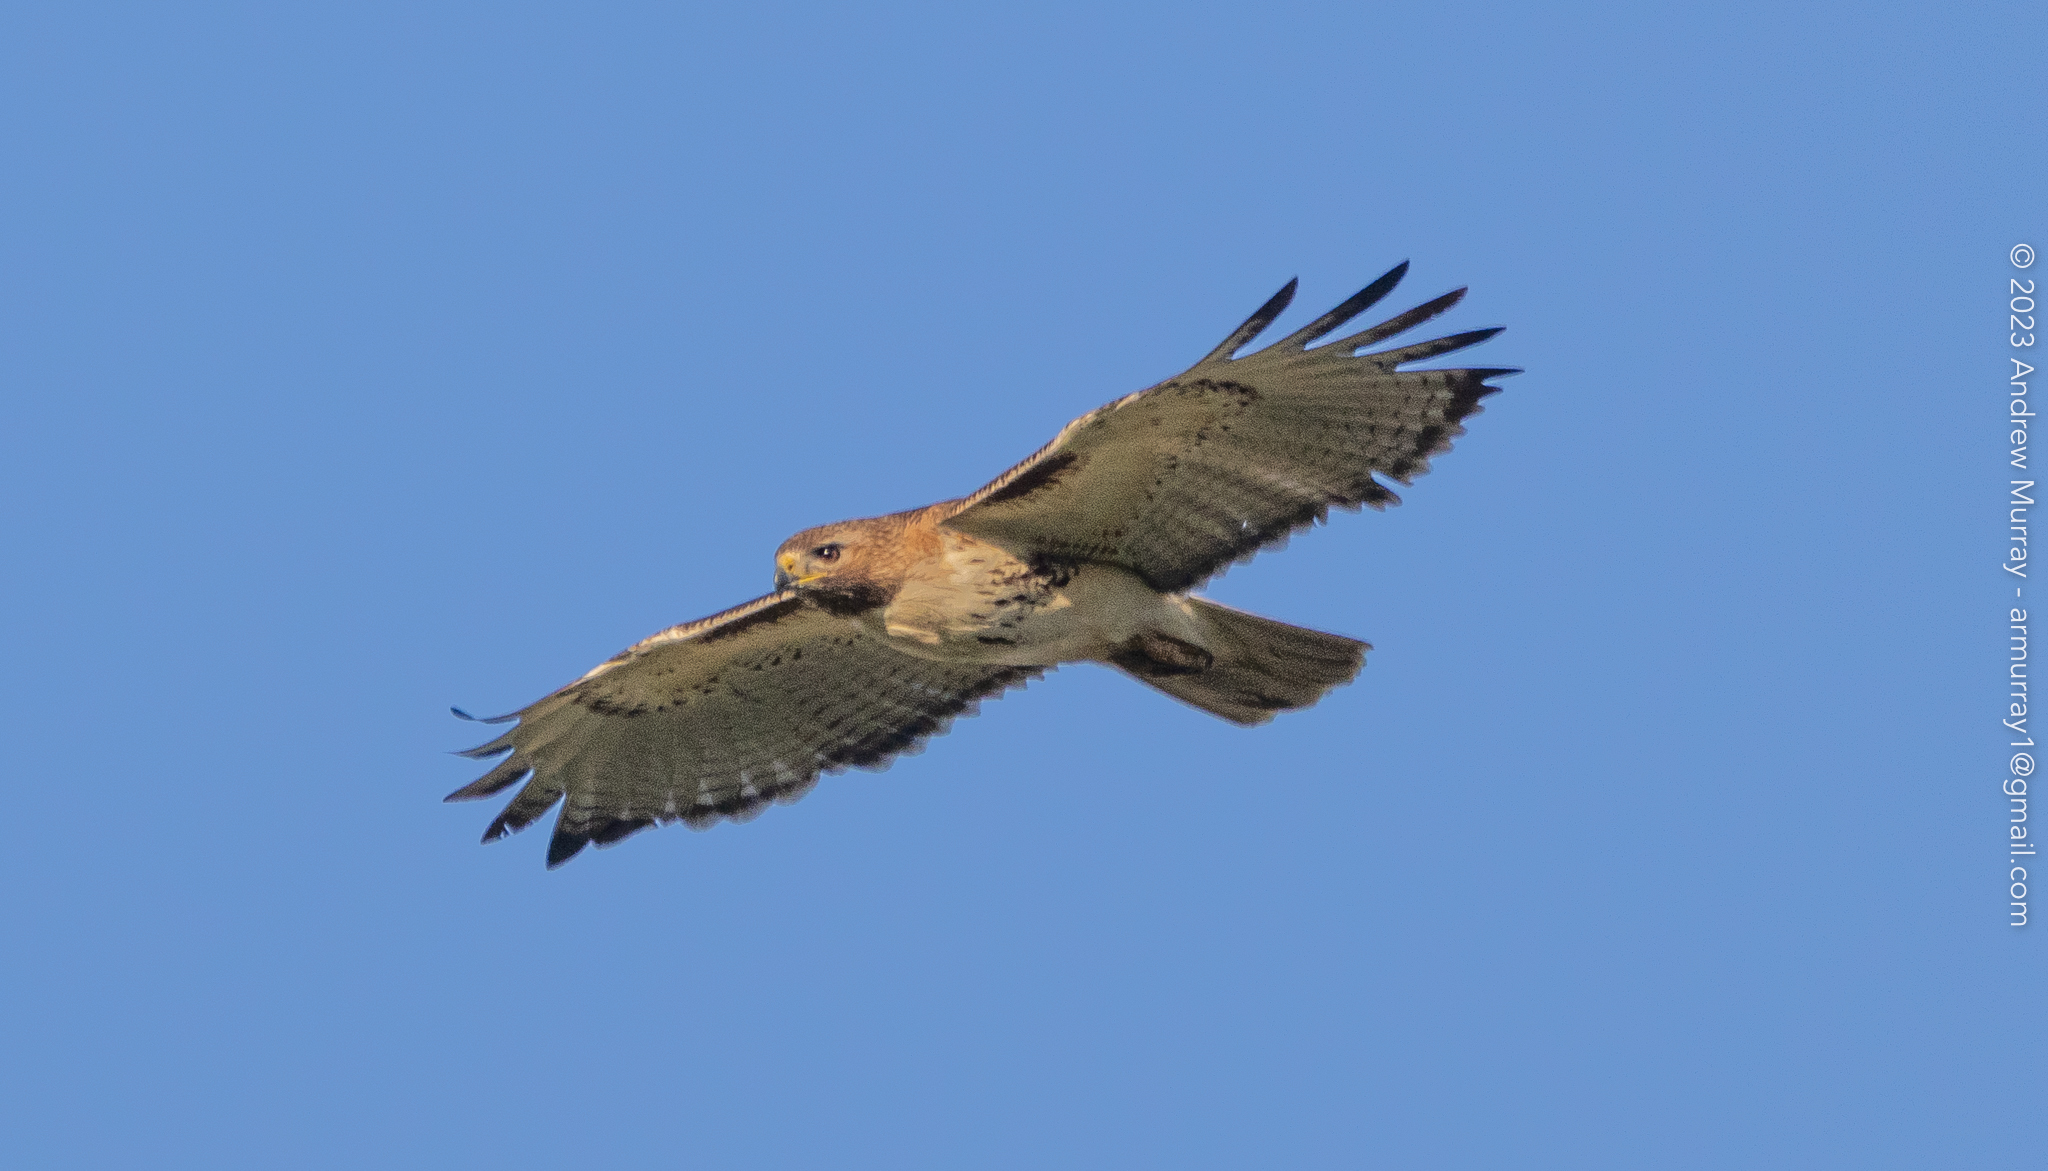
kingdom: Animalia
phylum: Chordata
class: Aves
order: Accipitriformes
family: Accipitridae
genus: Buteo
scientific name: Buteo jamaicensis
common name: Red-tailed hawk
